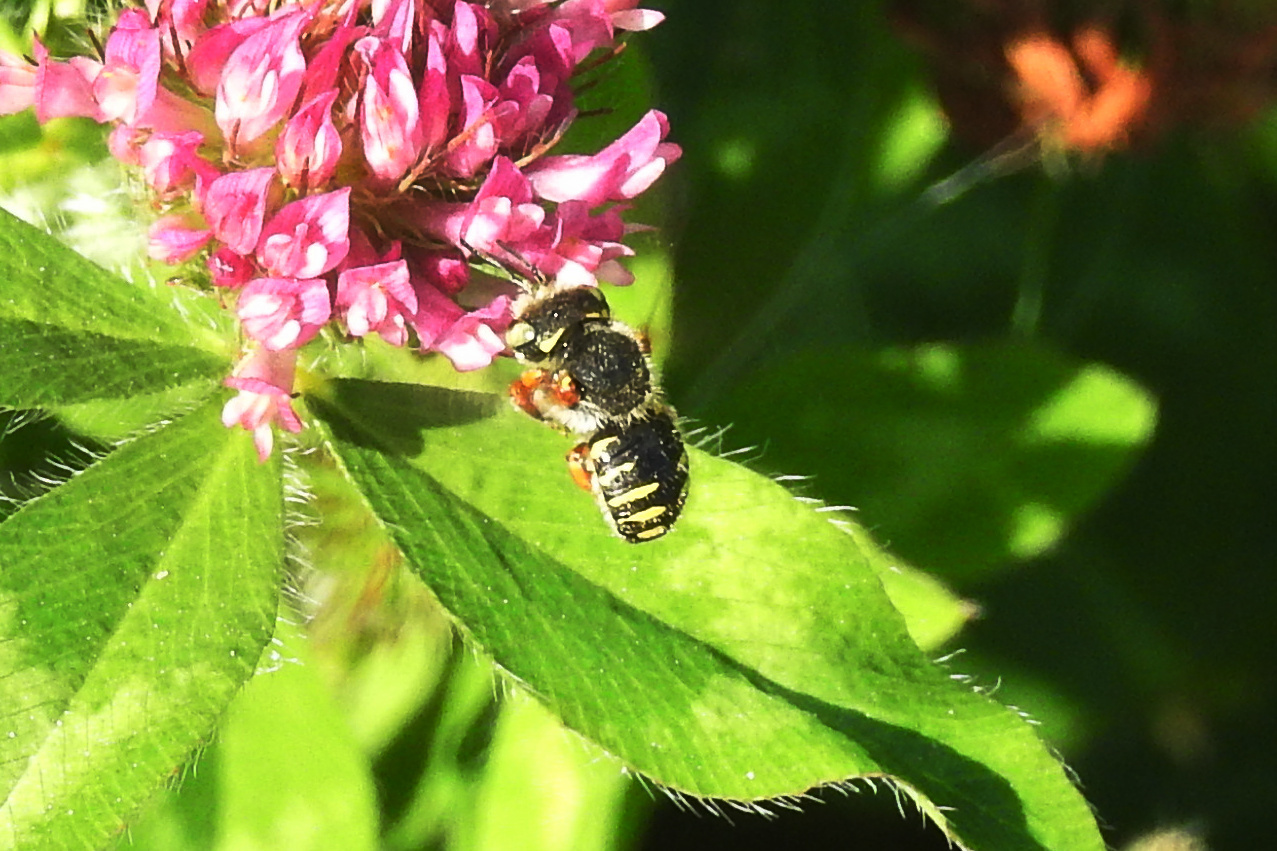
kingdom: Animalia
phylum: Arthropoda
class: Insecta
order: Hymenoptera
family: Megachilidae
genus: Anthidium
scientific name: Anthidium oblongatum
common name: Oblong wool carder bee
